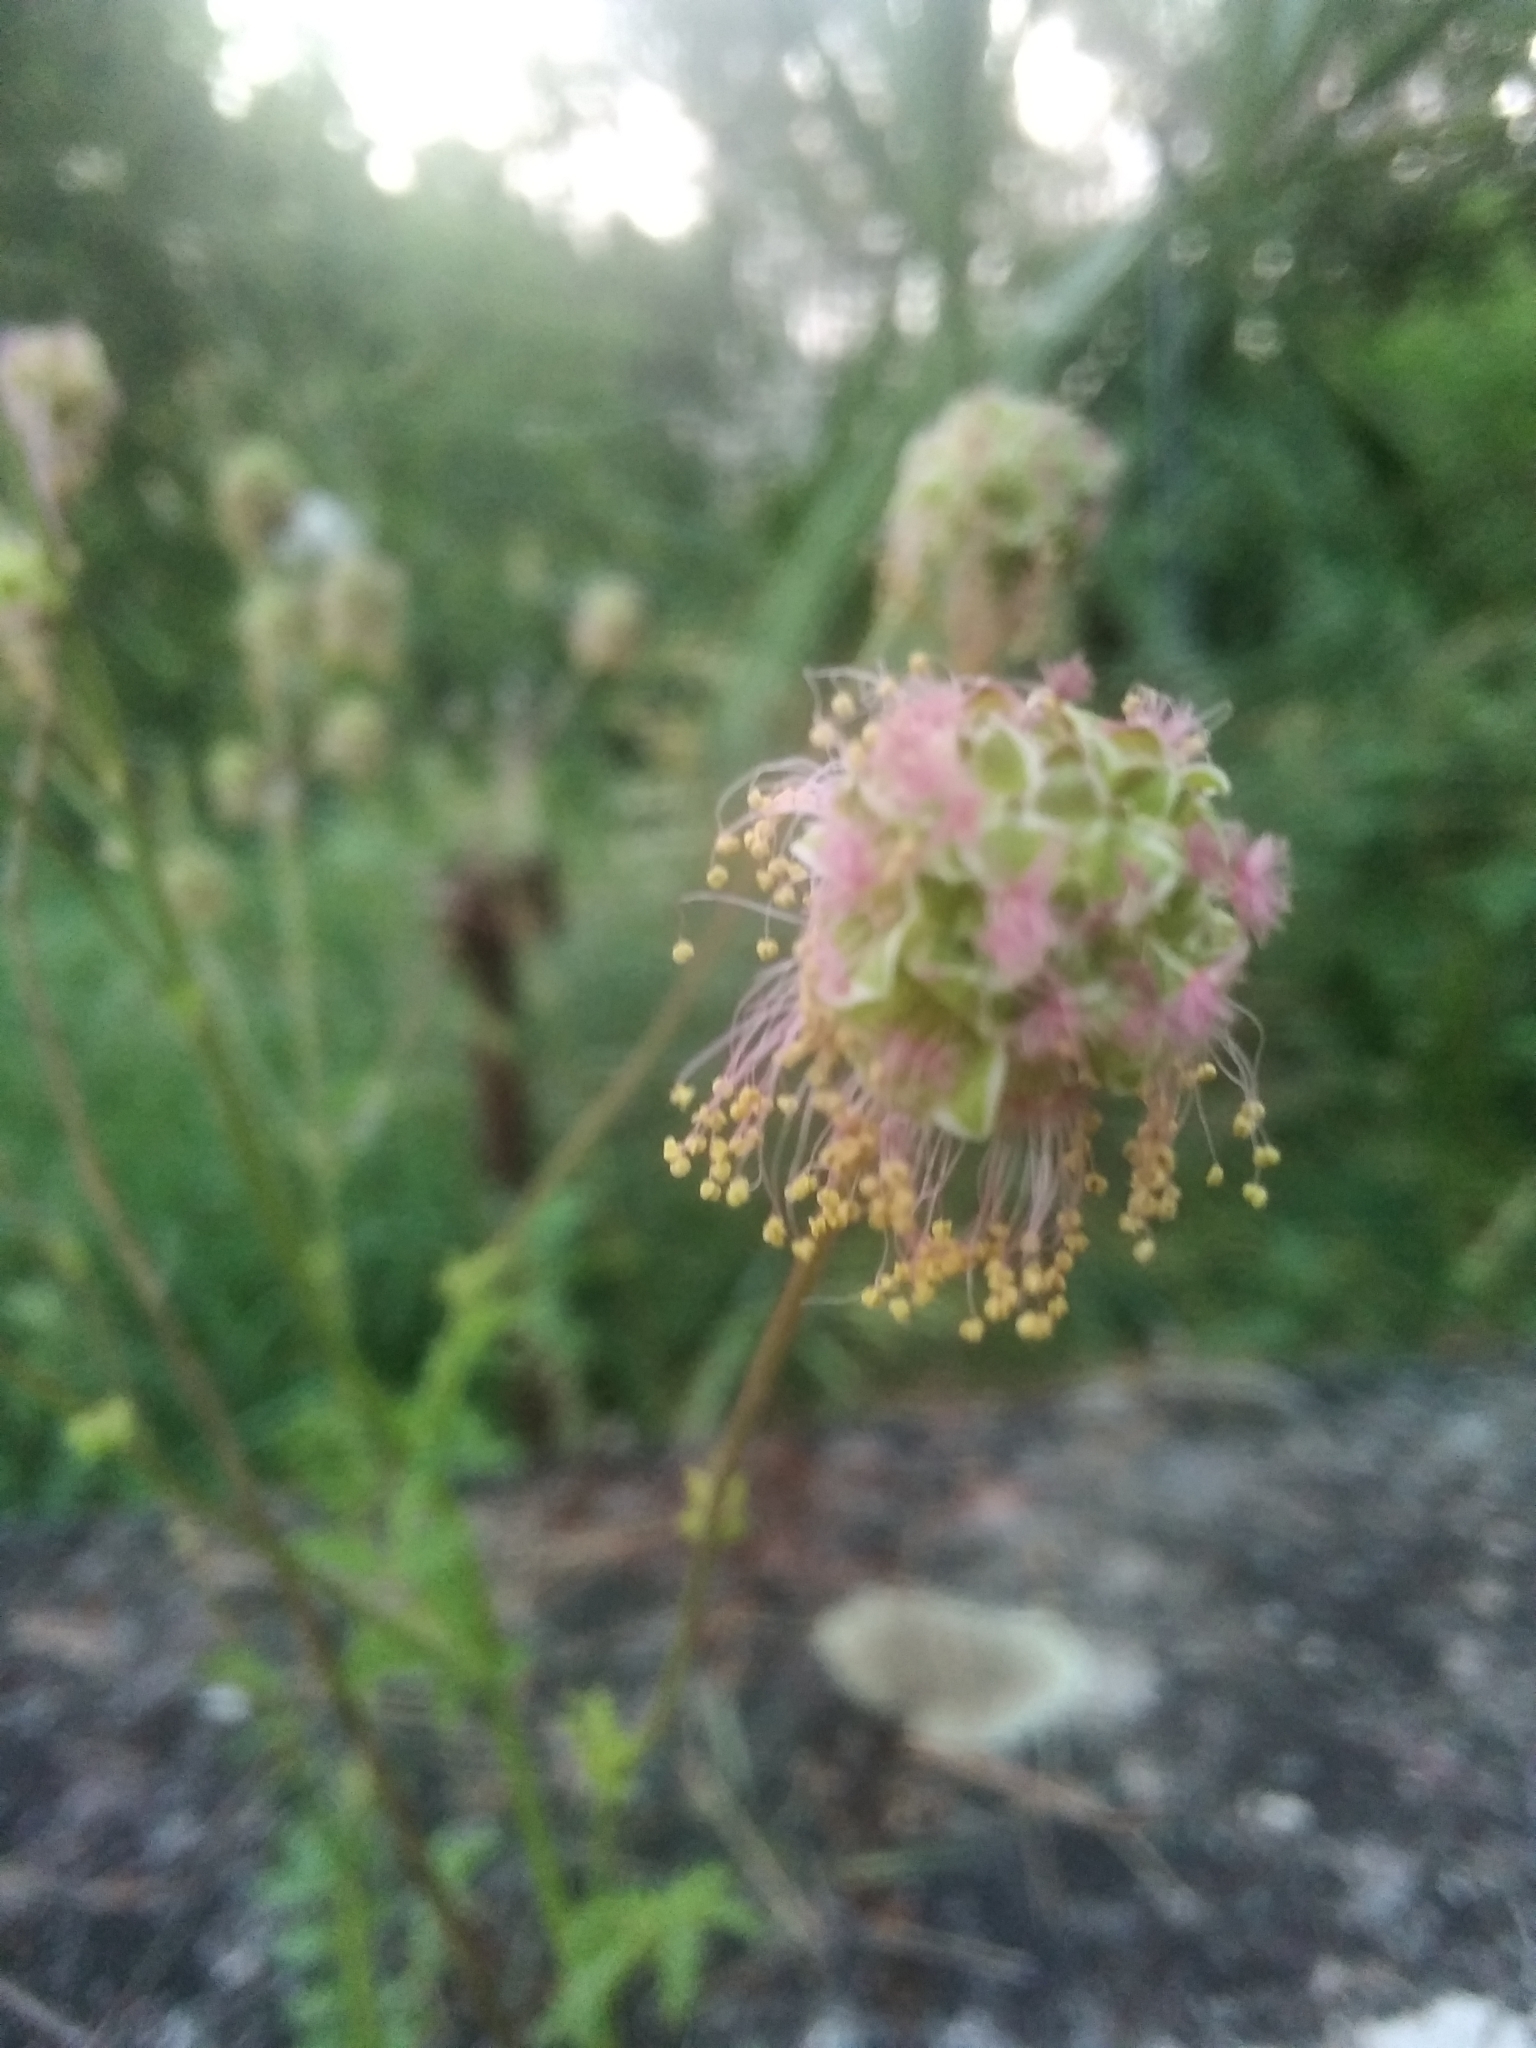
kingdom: Plantae
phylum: Tracheophyta
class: Magnoliopsida
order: Rosales
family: Rosaceae
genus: Poterium
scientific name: Poterium sanguisorba
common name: Salad burnet
